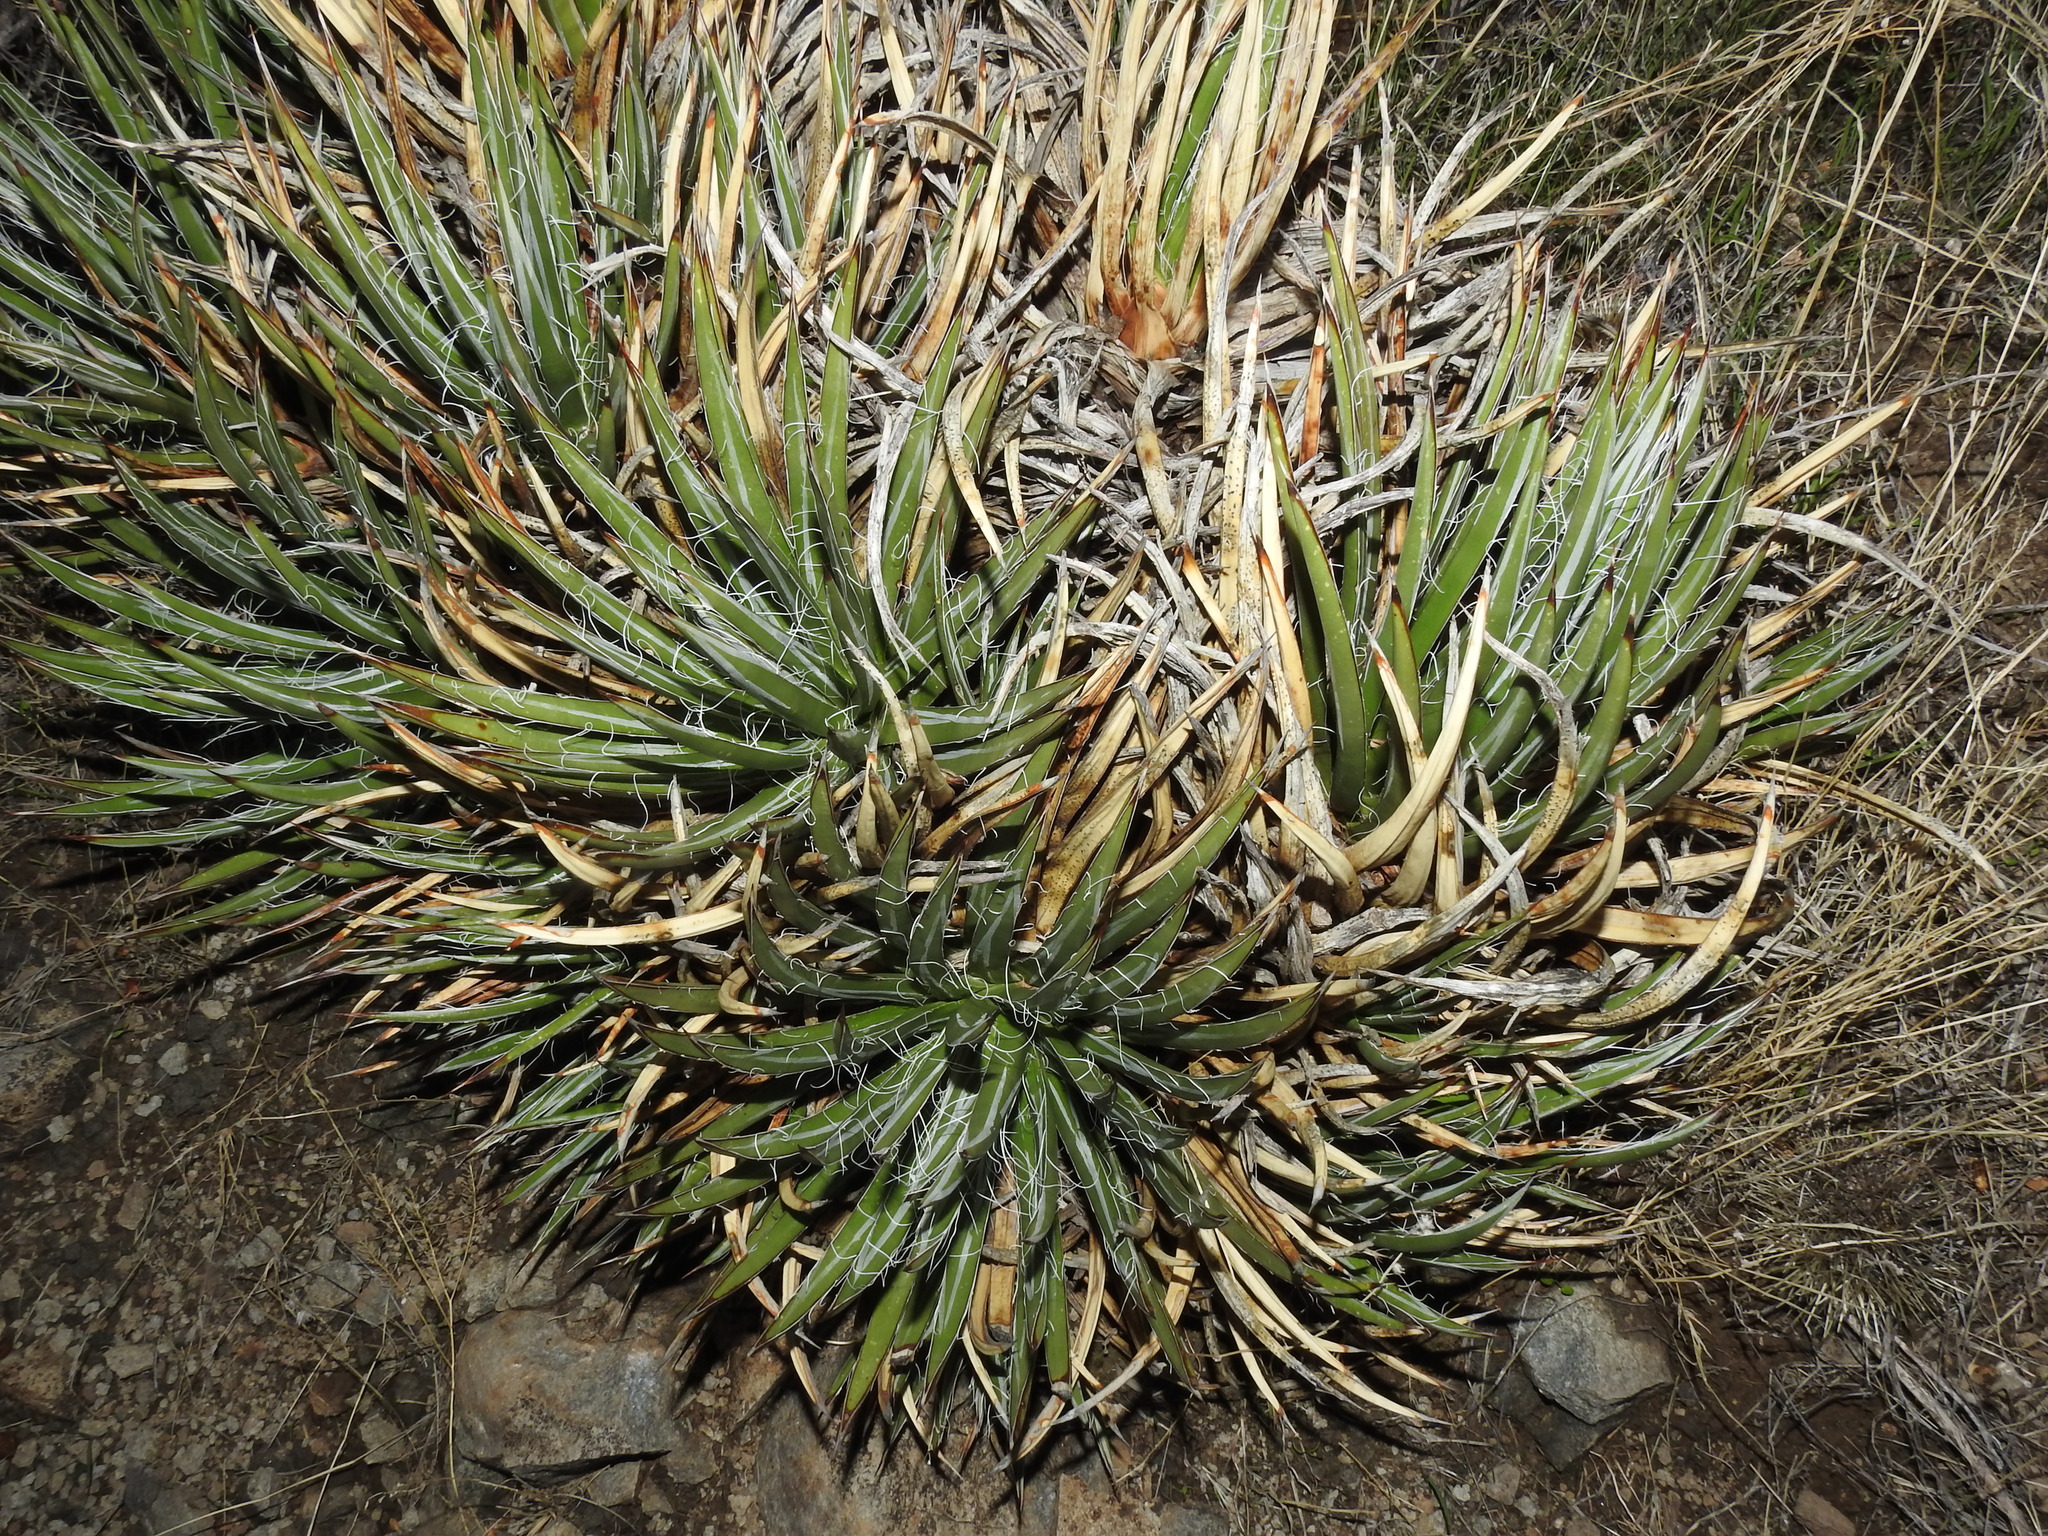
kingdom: Plantae
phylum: Tracheophyta
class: Liliopsida
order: Asparagales
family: Asparagaceae
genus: Agave
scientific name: Agave toumeyana
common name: Toumey's agave
